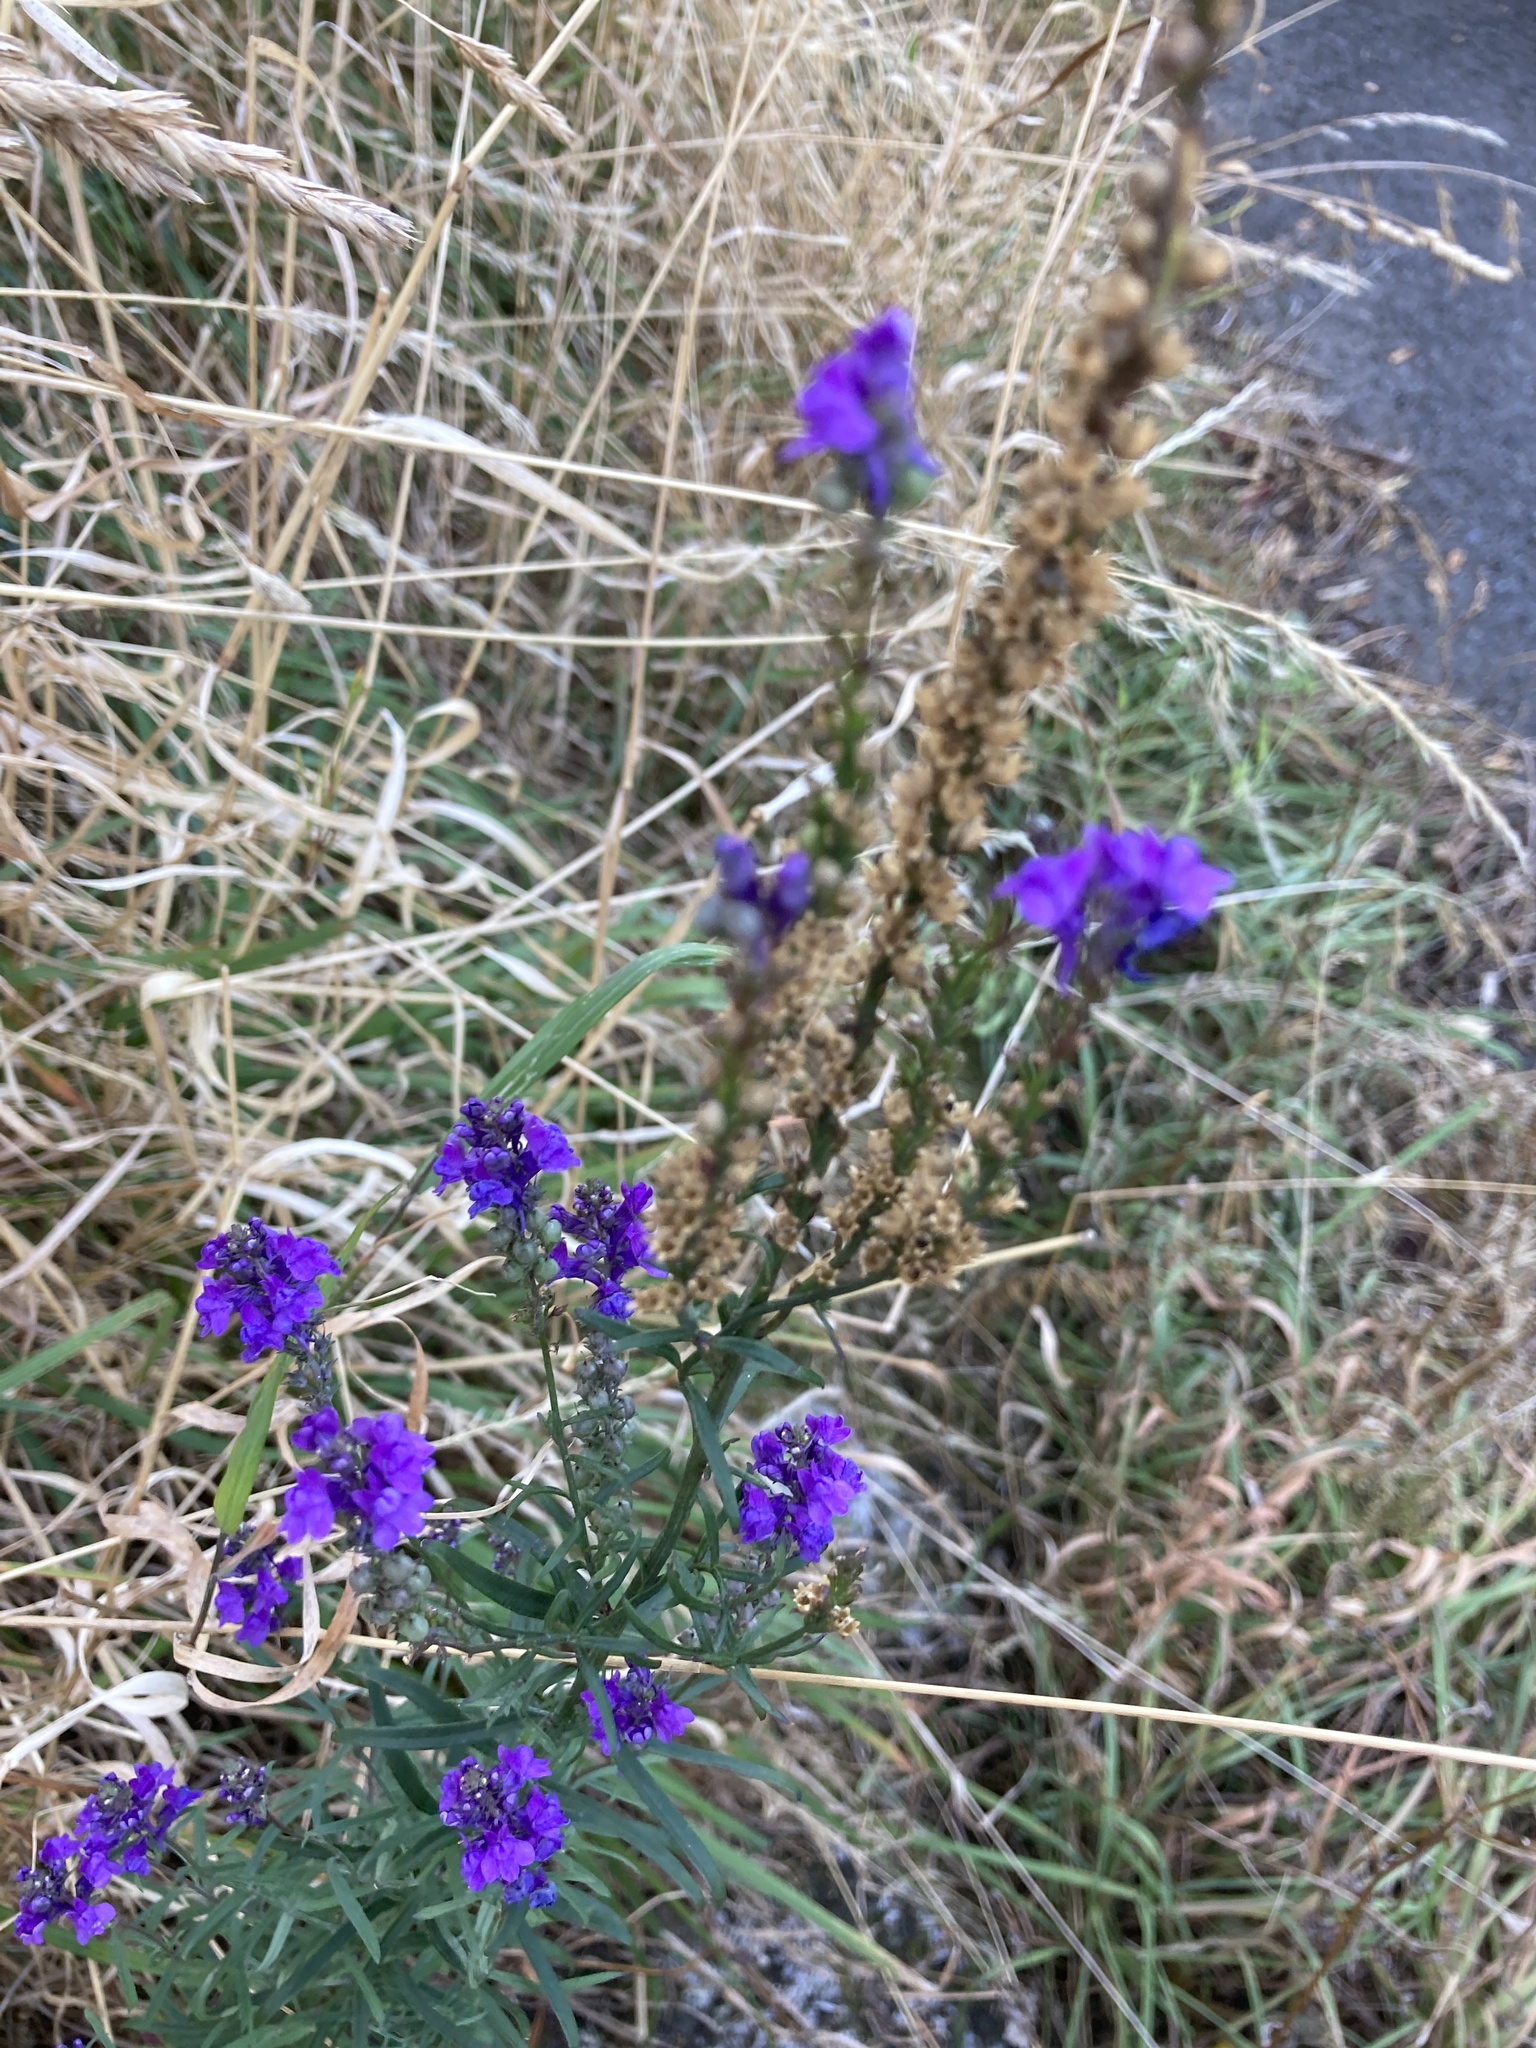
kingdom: Plantae
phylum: Tracheophyta
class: Magnoliopsida
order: Lamiales
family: Plantaginaceae
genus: Linaria
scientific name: Linaria purpurea
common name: Purple toadflax
